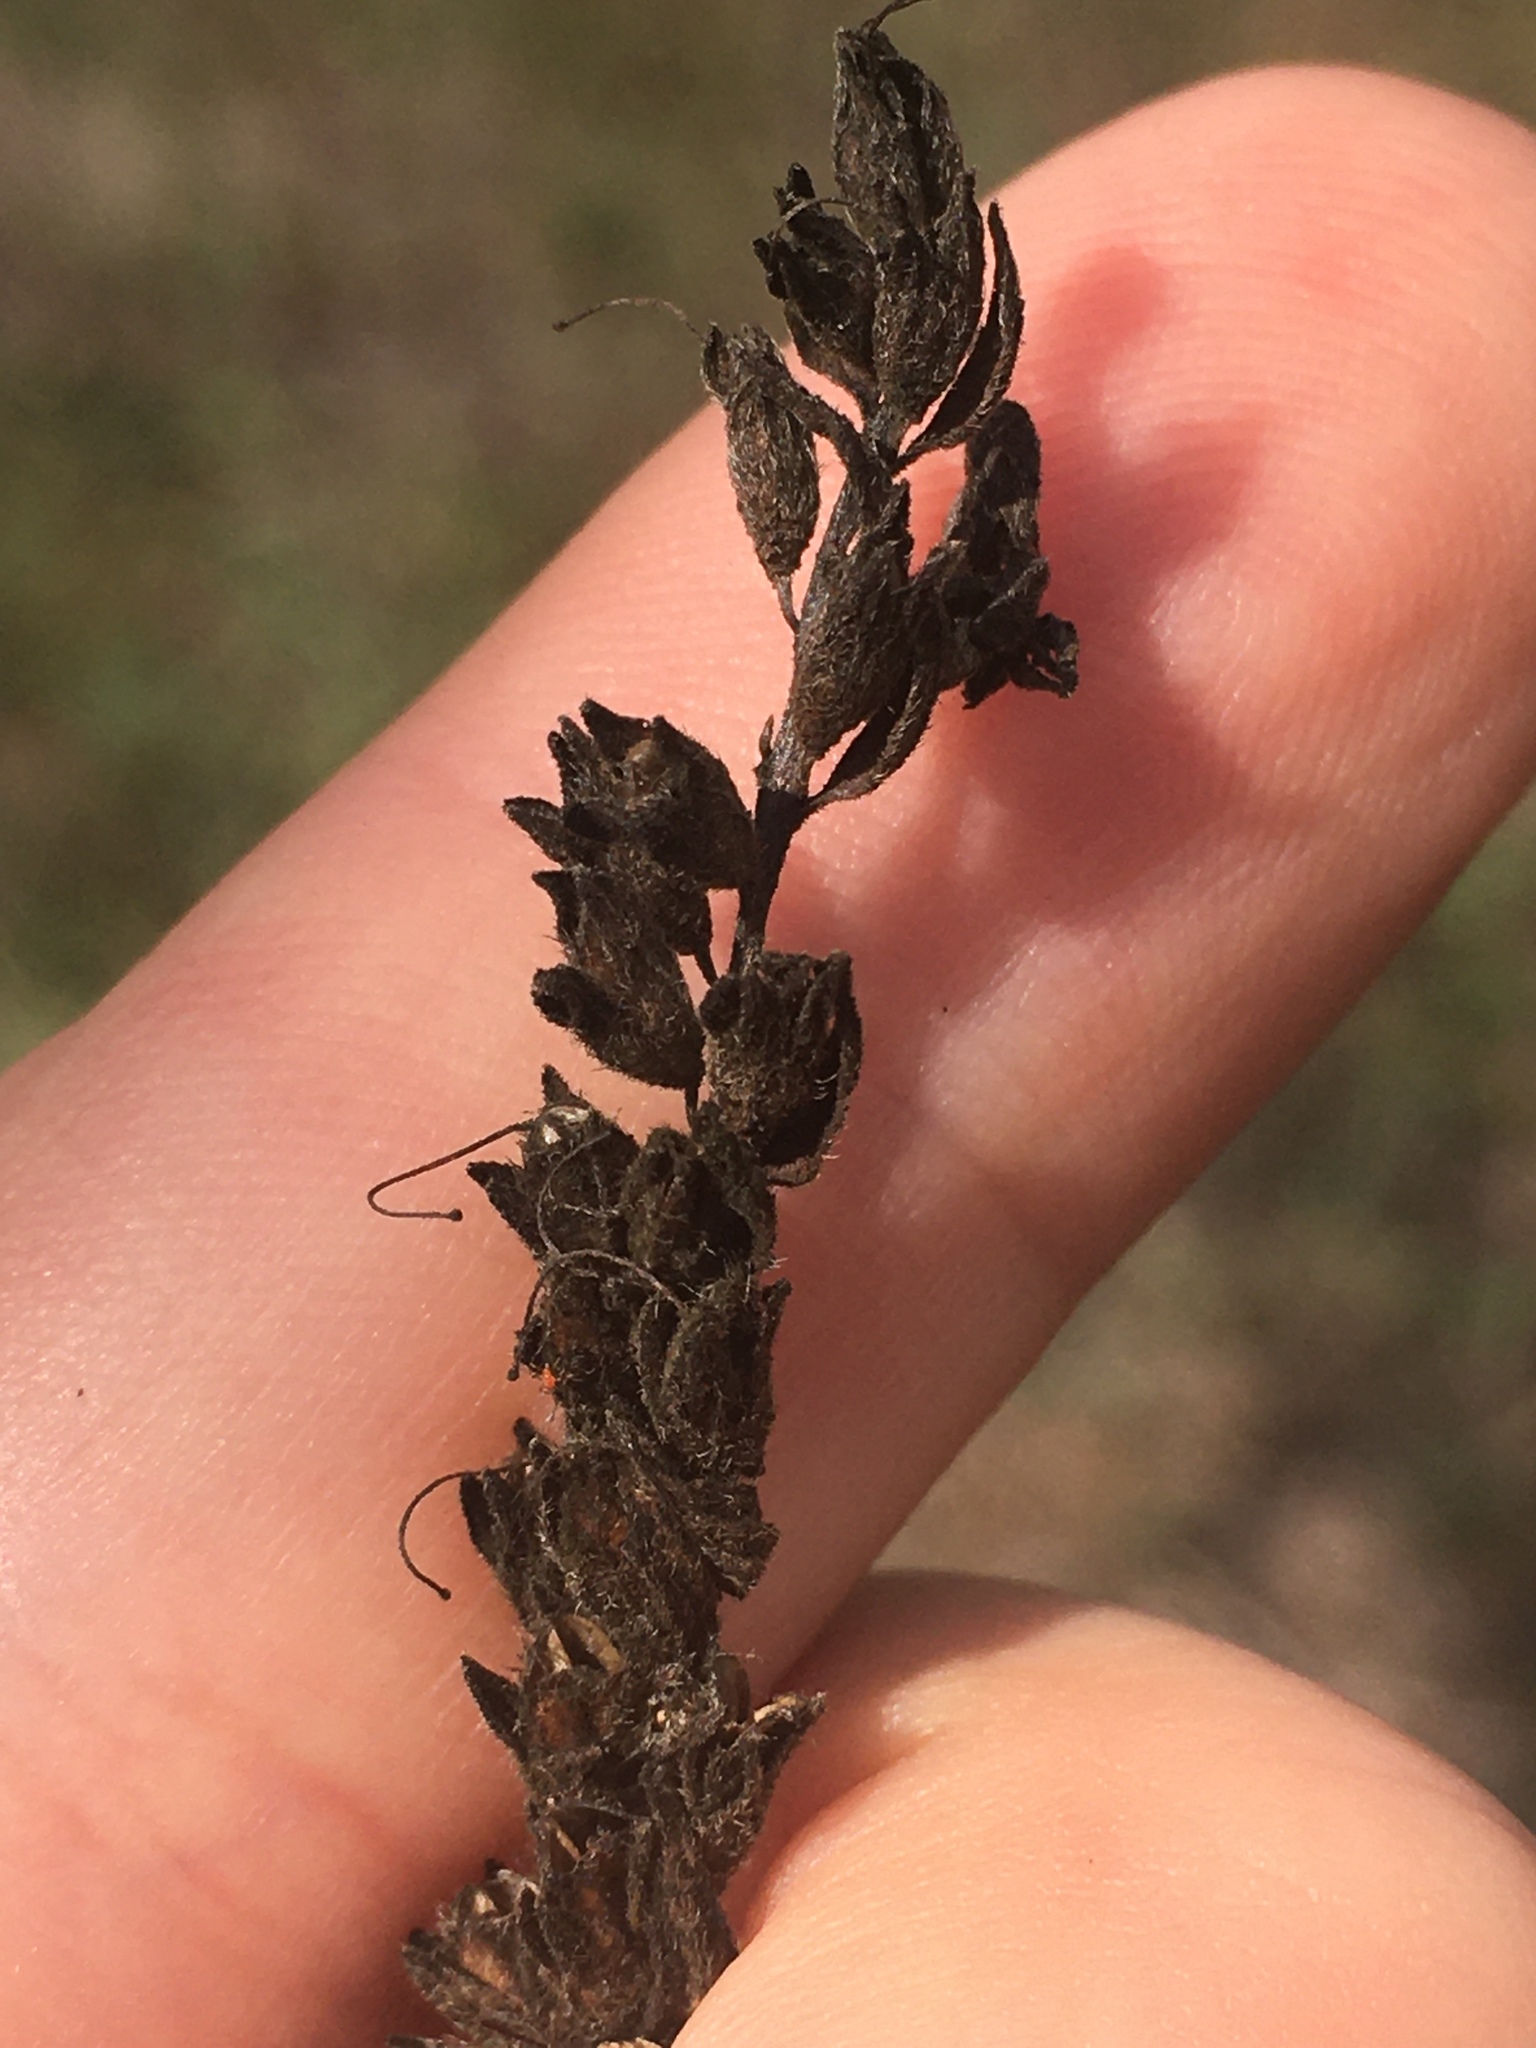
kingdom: Plantae
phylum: Tracheophyta
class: Magnoliopsida
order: Fabales
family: Fabaceae
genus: Amorpha
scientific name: Amorpha fruticosa
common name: False indigo
